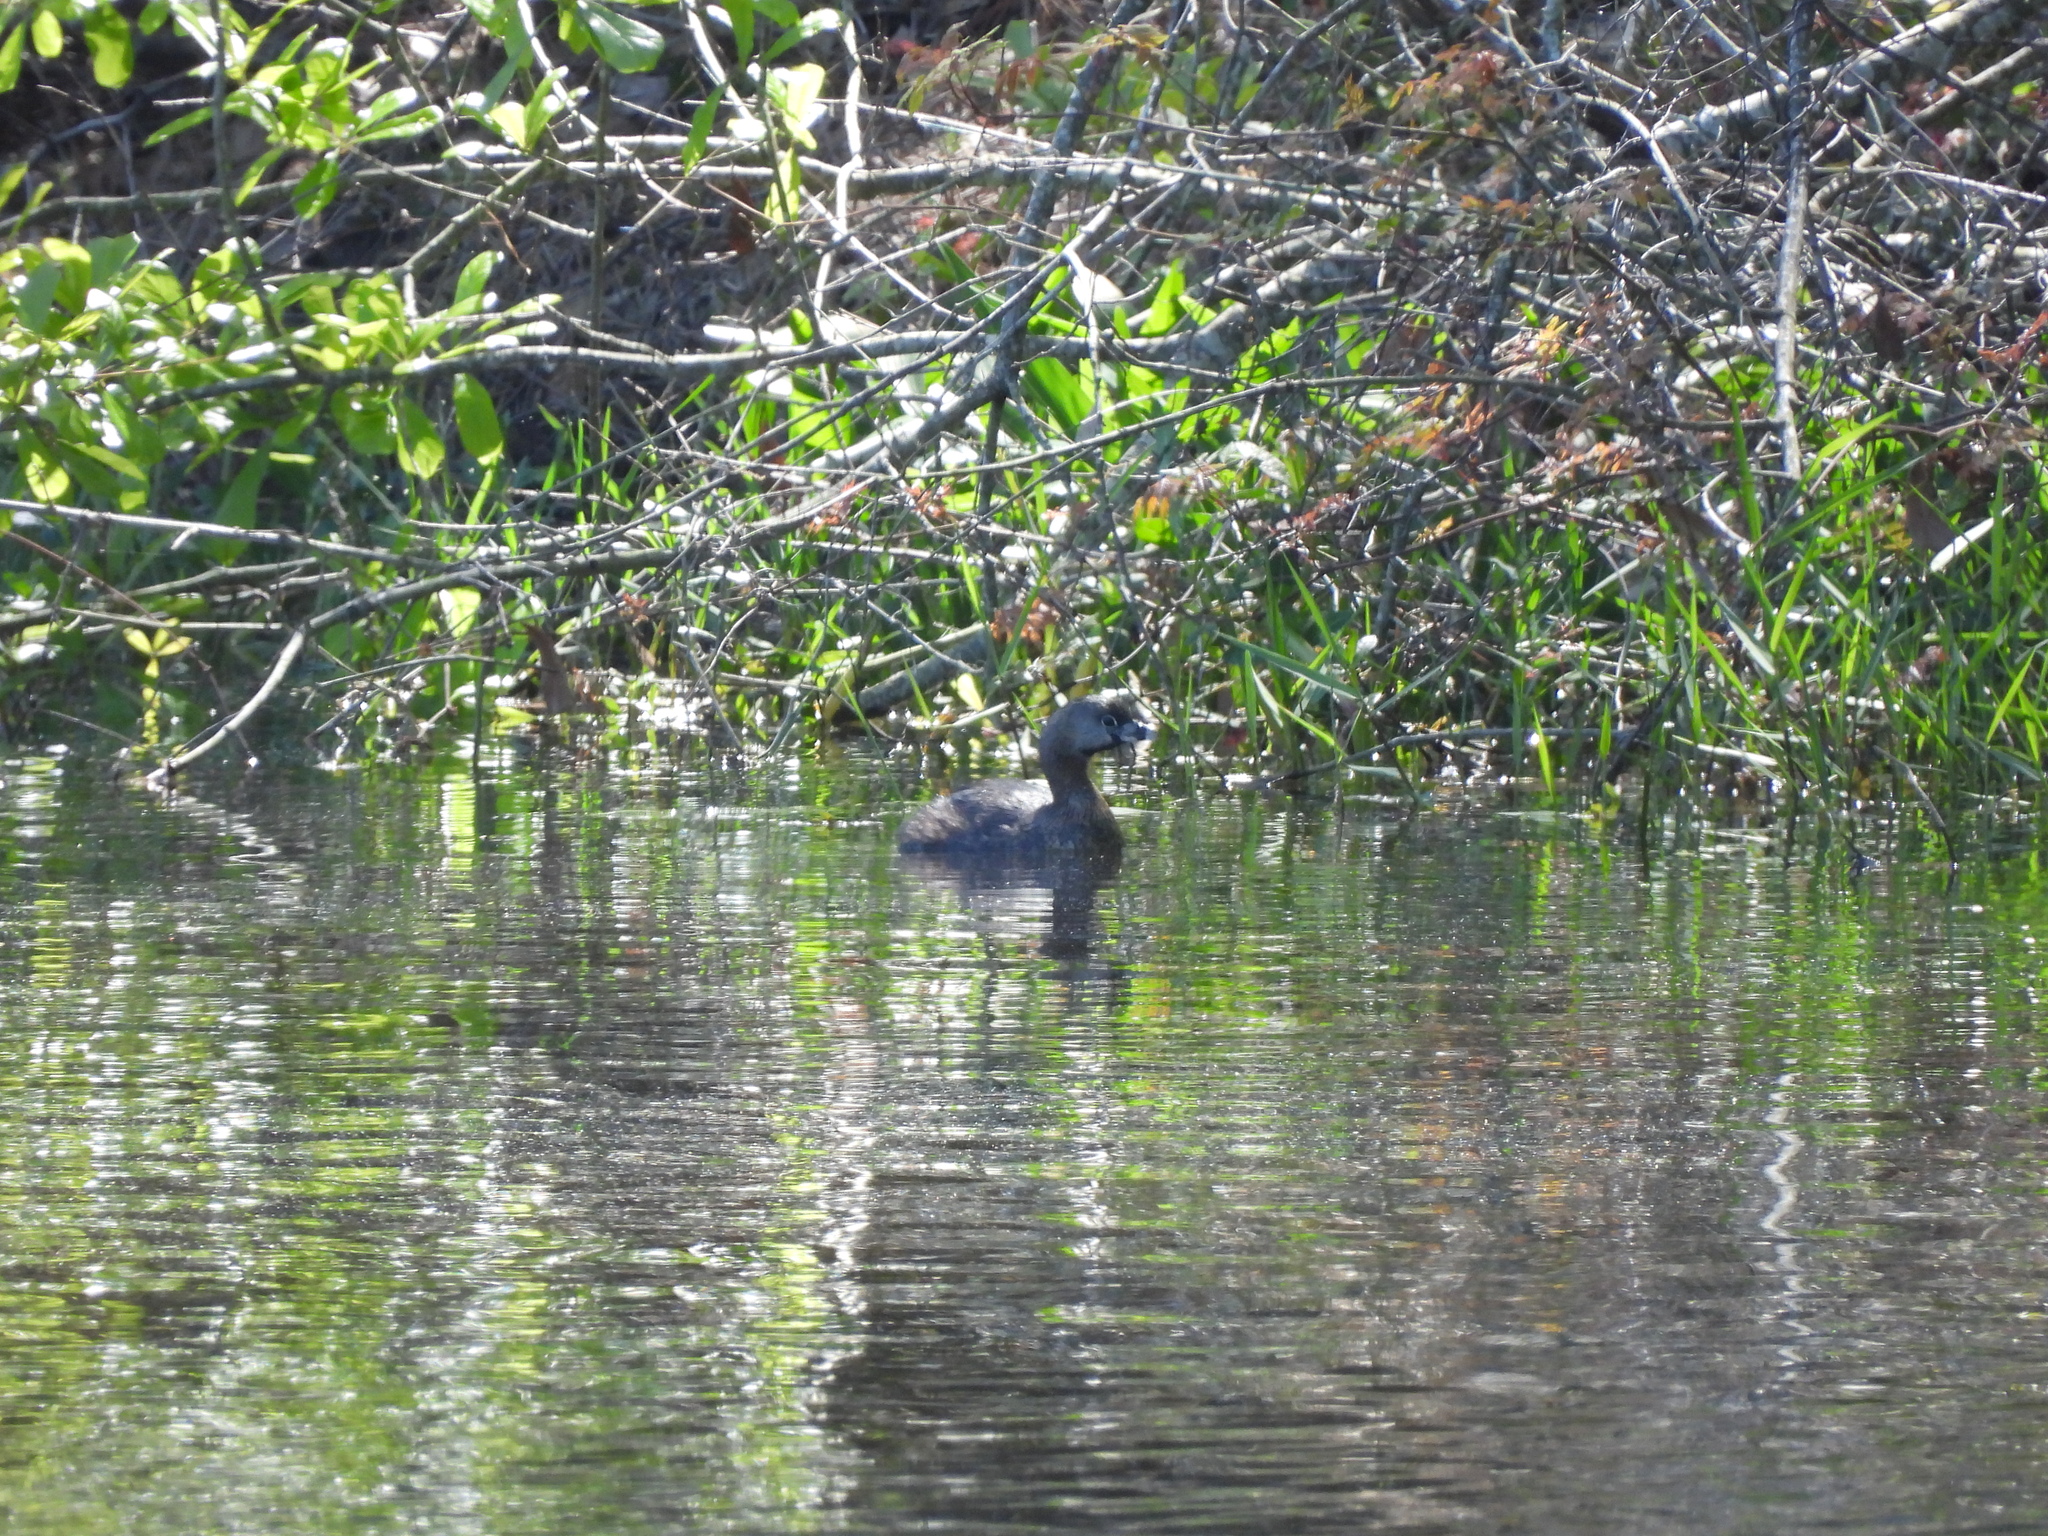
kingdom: Animalia
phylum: Chordata
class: Aves
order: Podicipediformes
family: Podicipedidae
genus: Podilymbus
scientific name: Podilymbus podiceps
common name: Pied-billed grebe
